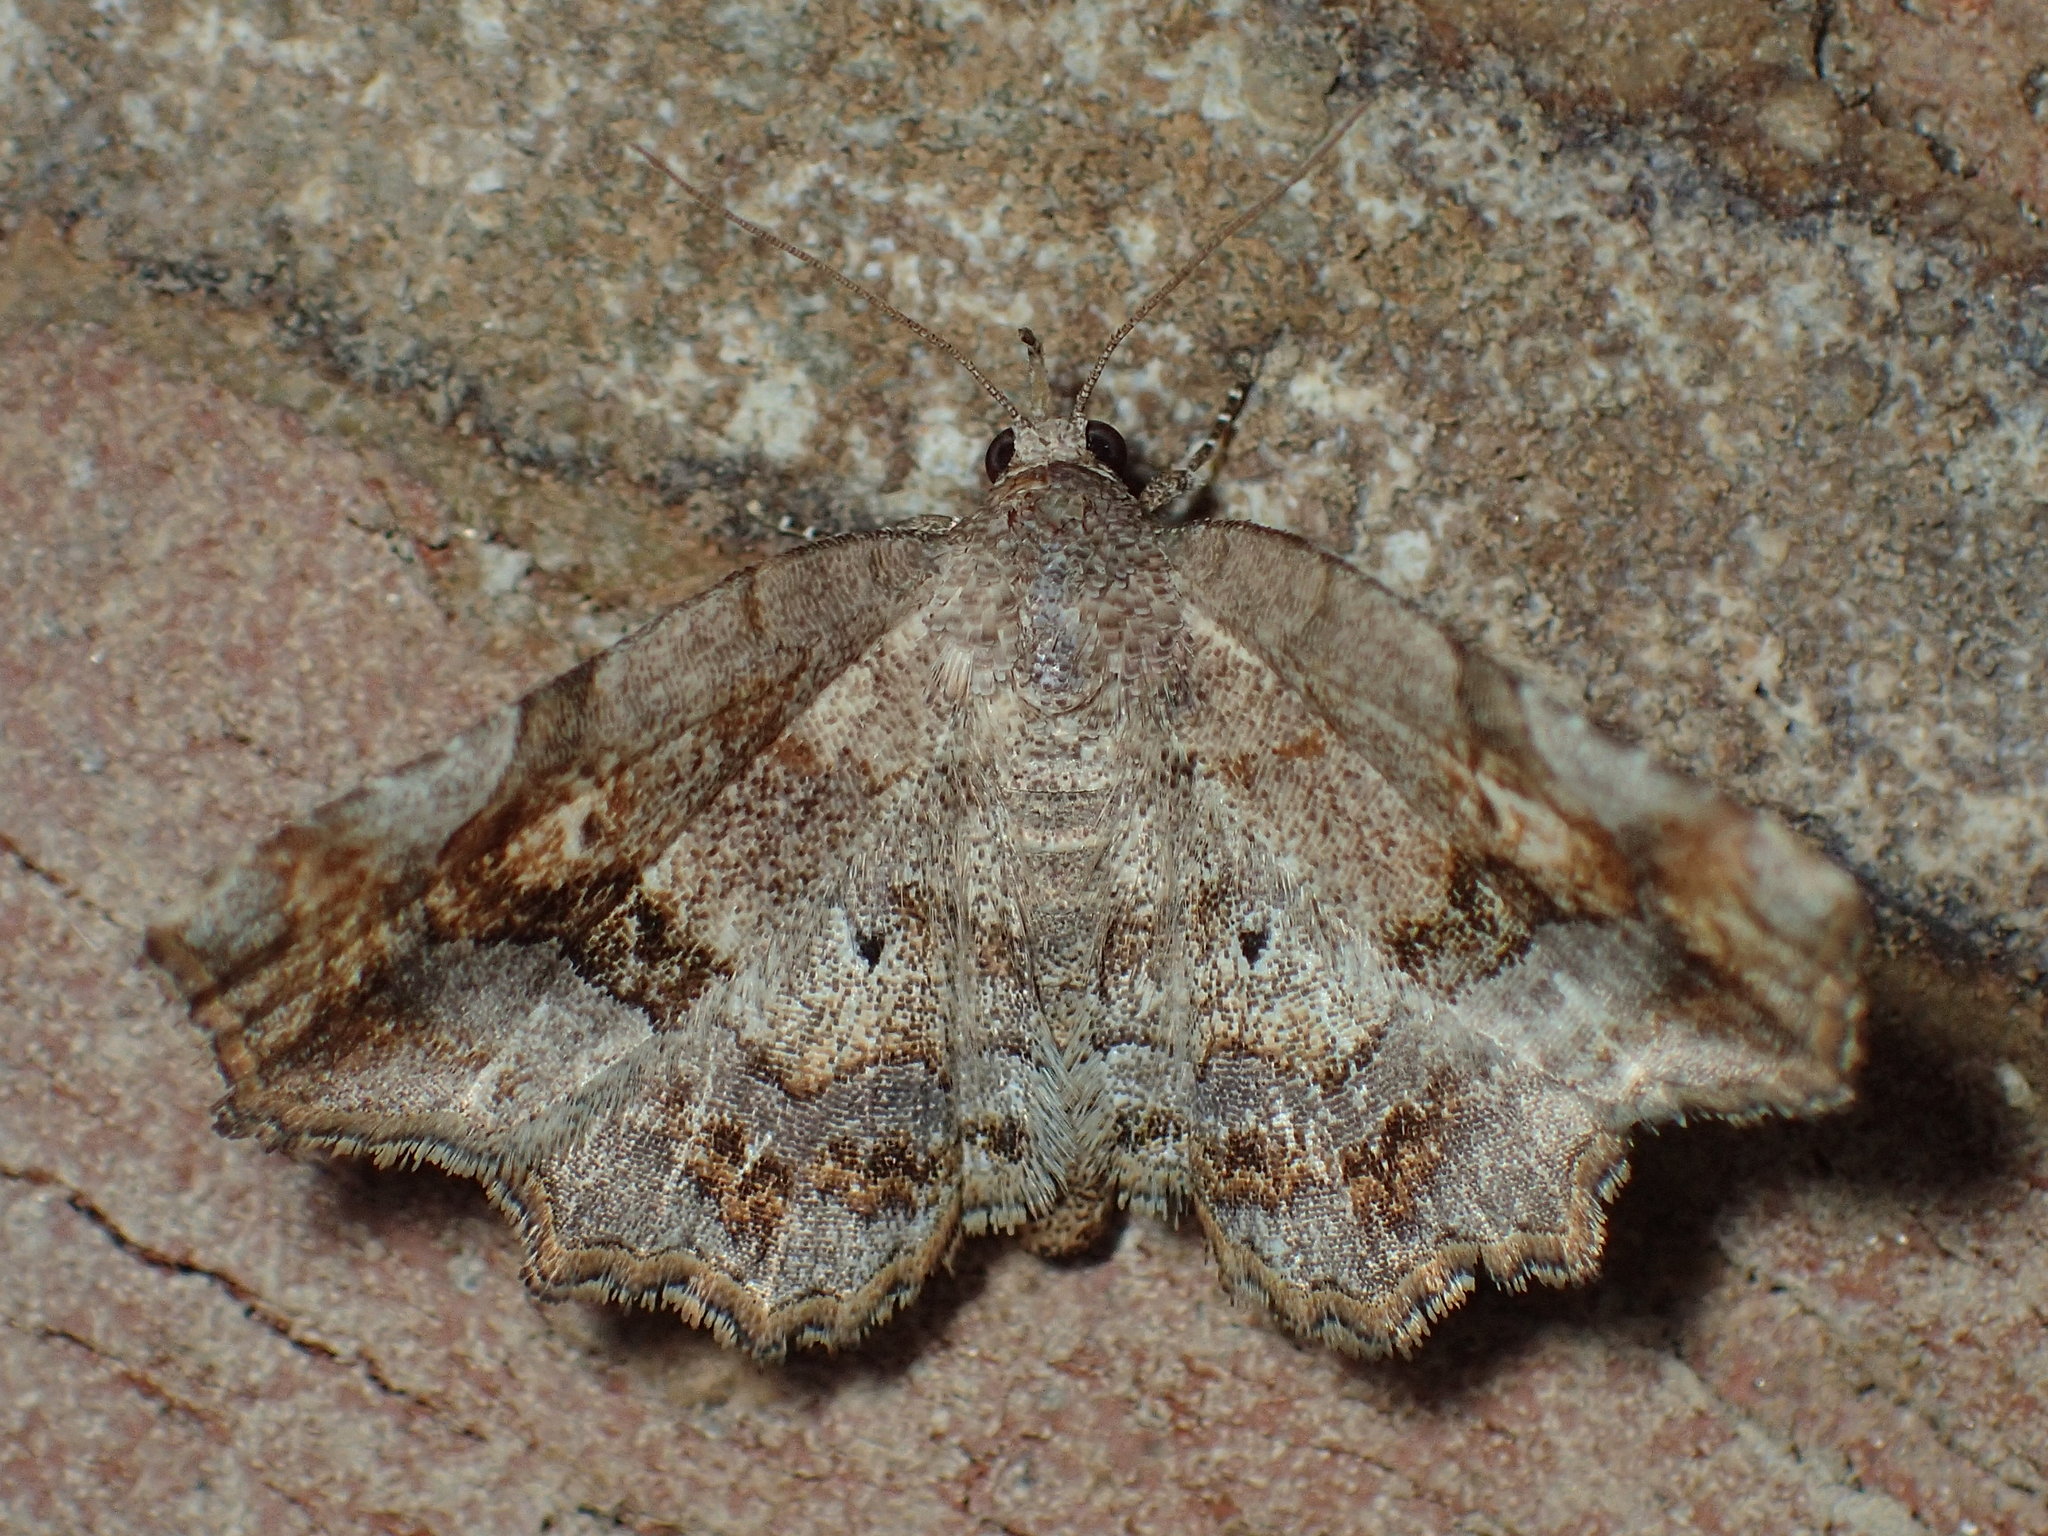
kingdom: Animalia
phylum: Arthropoda
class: Insecta
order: Lepidoptera
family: Erebidae
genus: Pangrapta
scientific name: Pangrapta decoralis
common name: Decorated owlet
